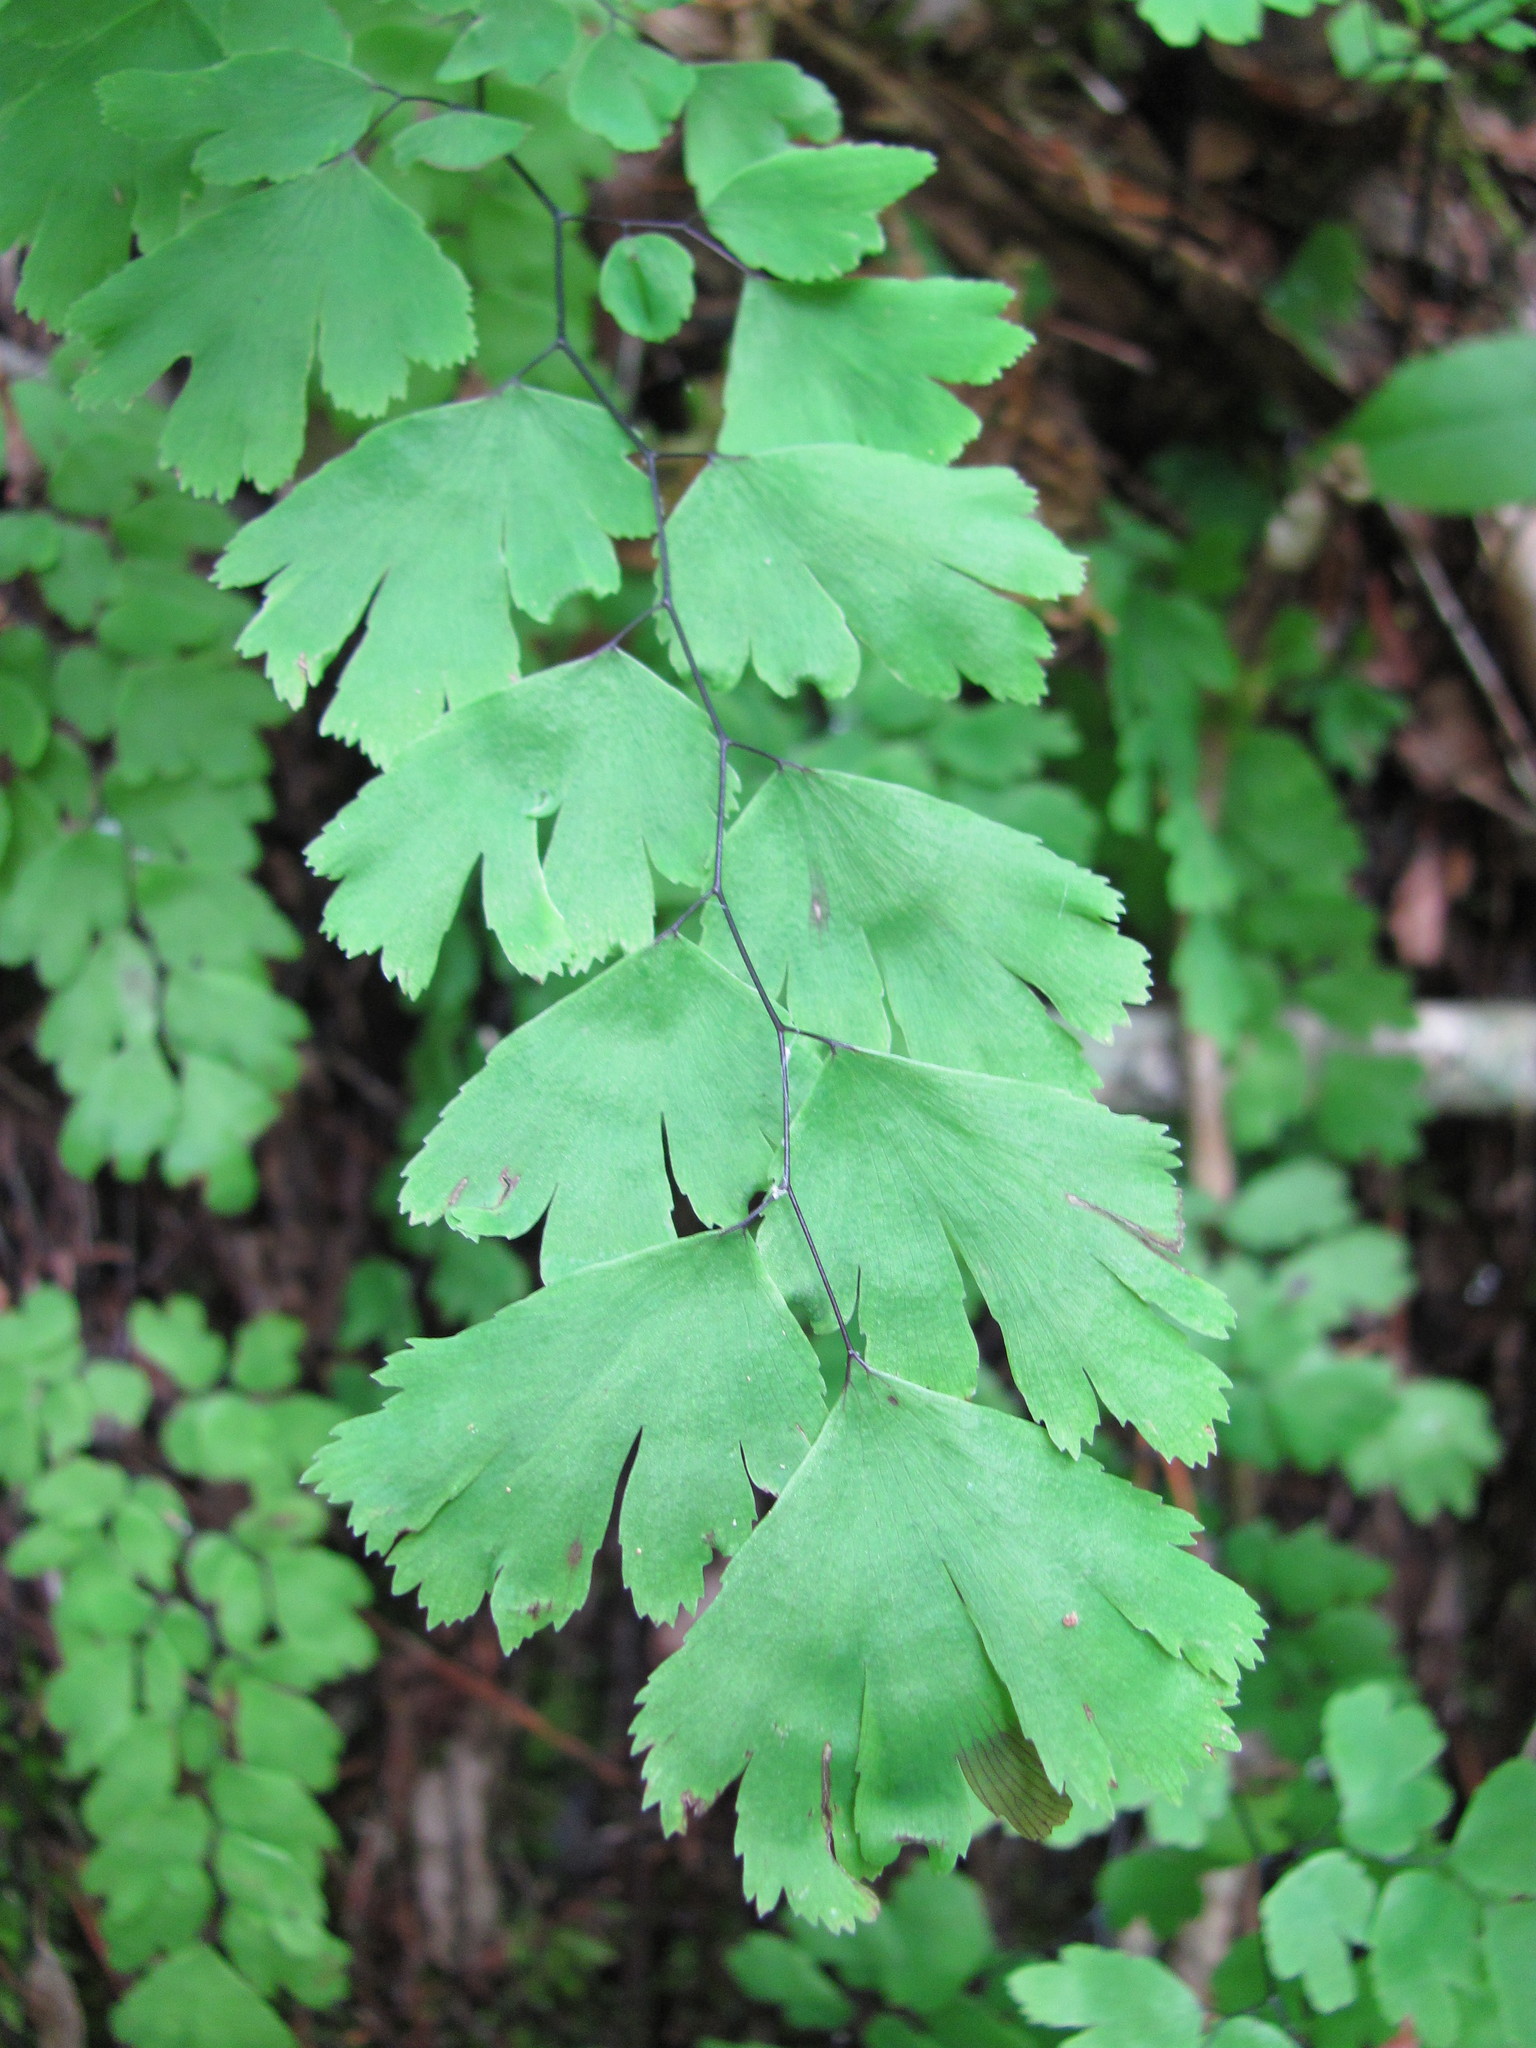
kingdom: Plantae
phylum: Tracheophyta
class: Polypodiopsida
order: Polypodiales
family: Pteridaceae
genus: Adiantum
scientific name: Adiantum capillus-veneris
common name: Maidenhair fern
